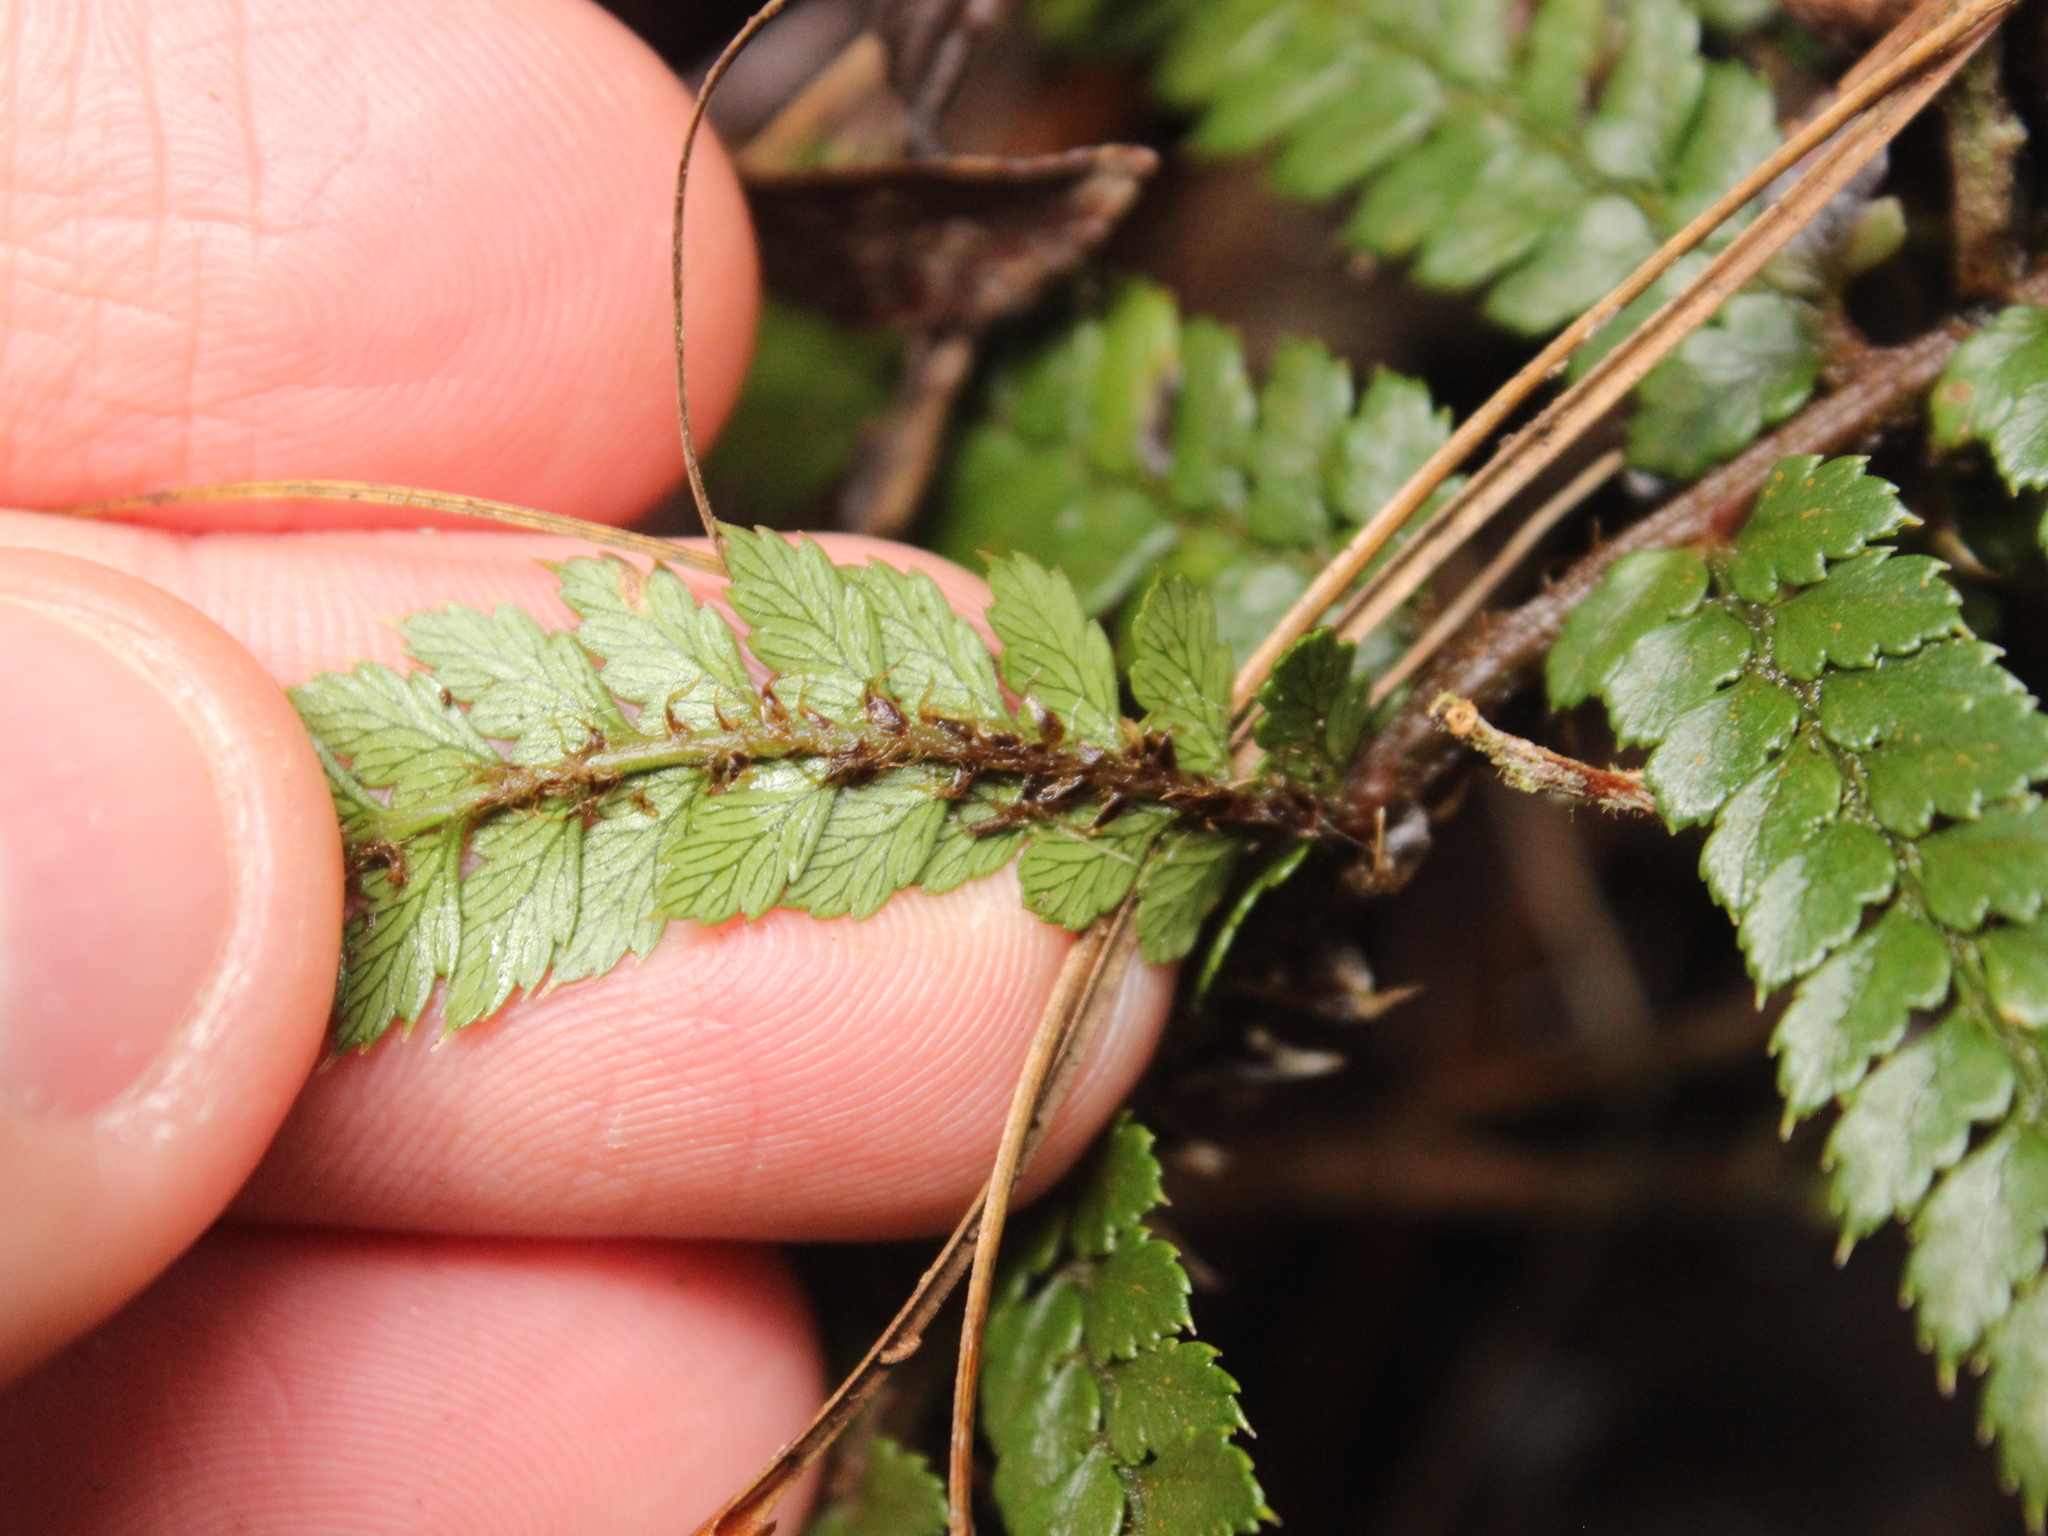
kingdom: Plantae
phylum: Tracheophyta
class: Polypodiopsida
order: Polypodiales
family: Dryopteridaceae
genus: Polystichum
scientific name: Polystichum vestitum
